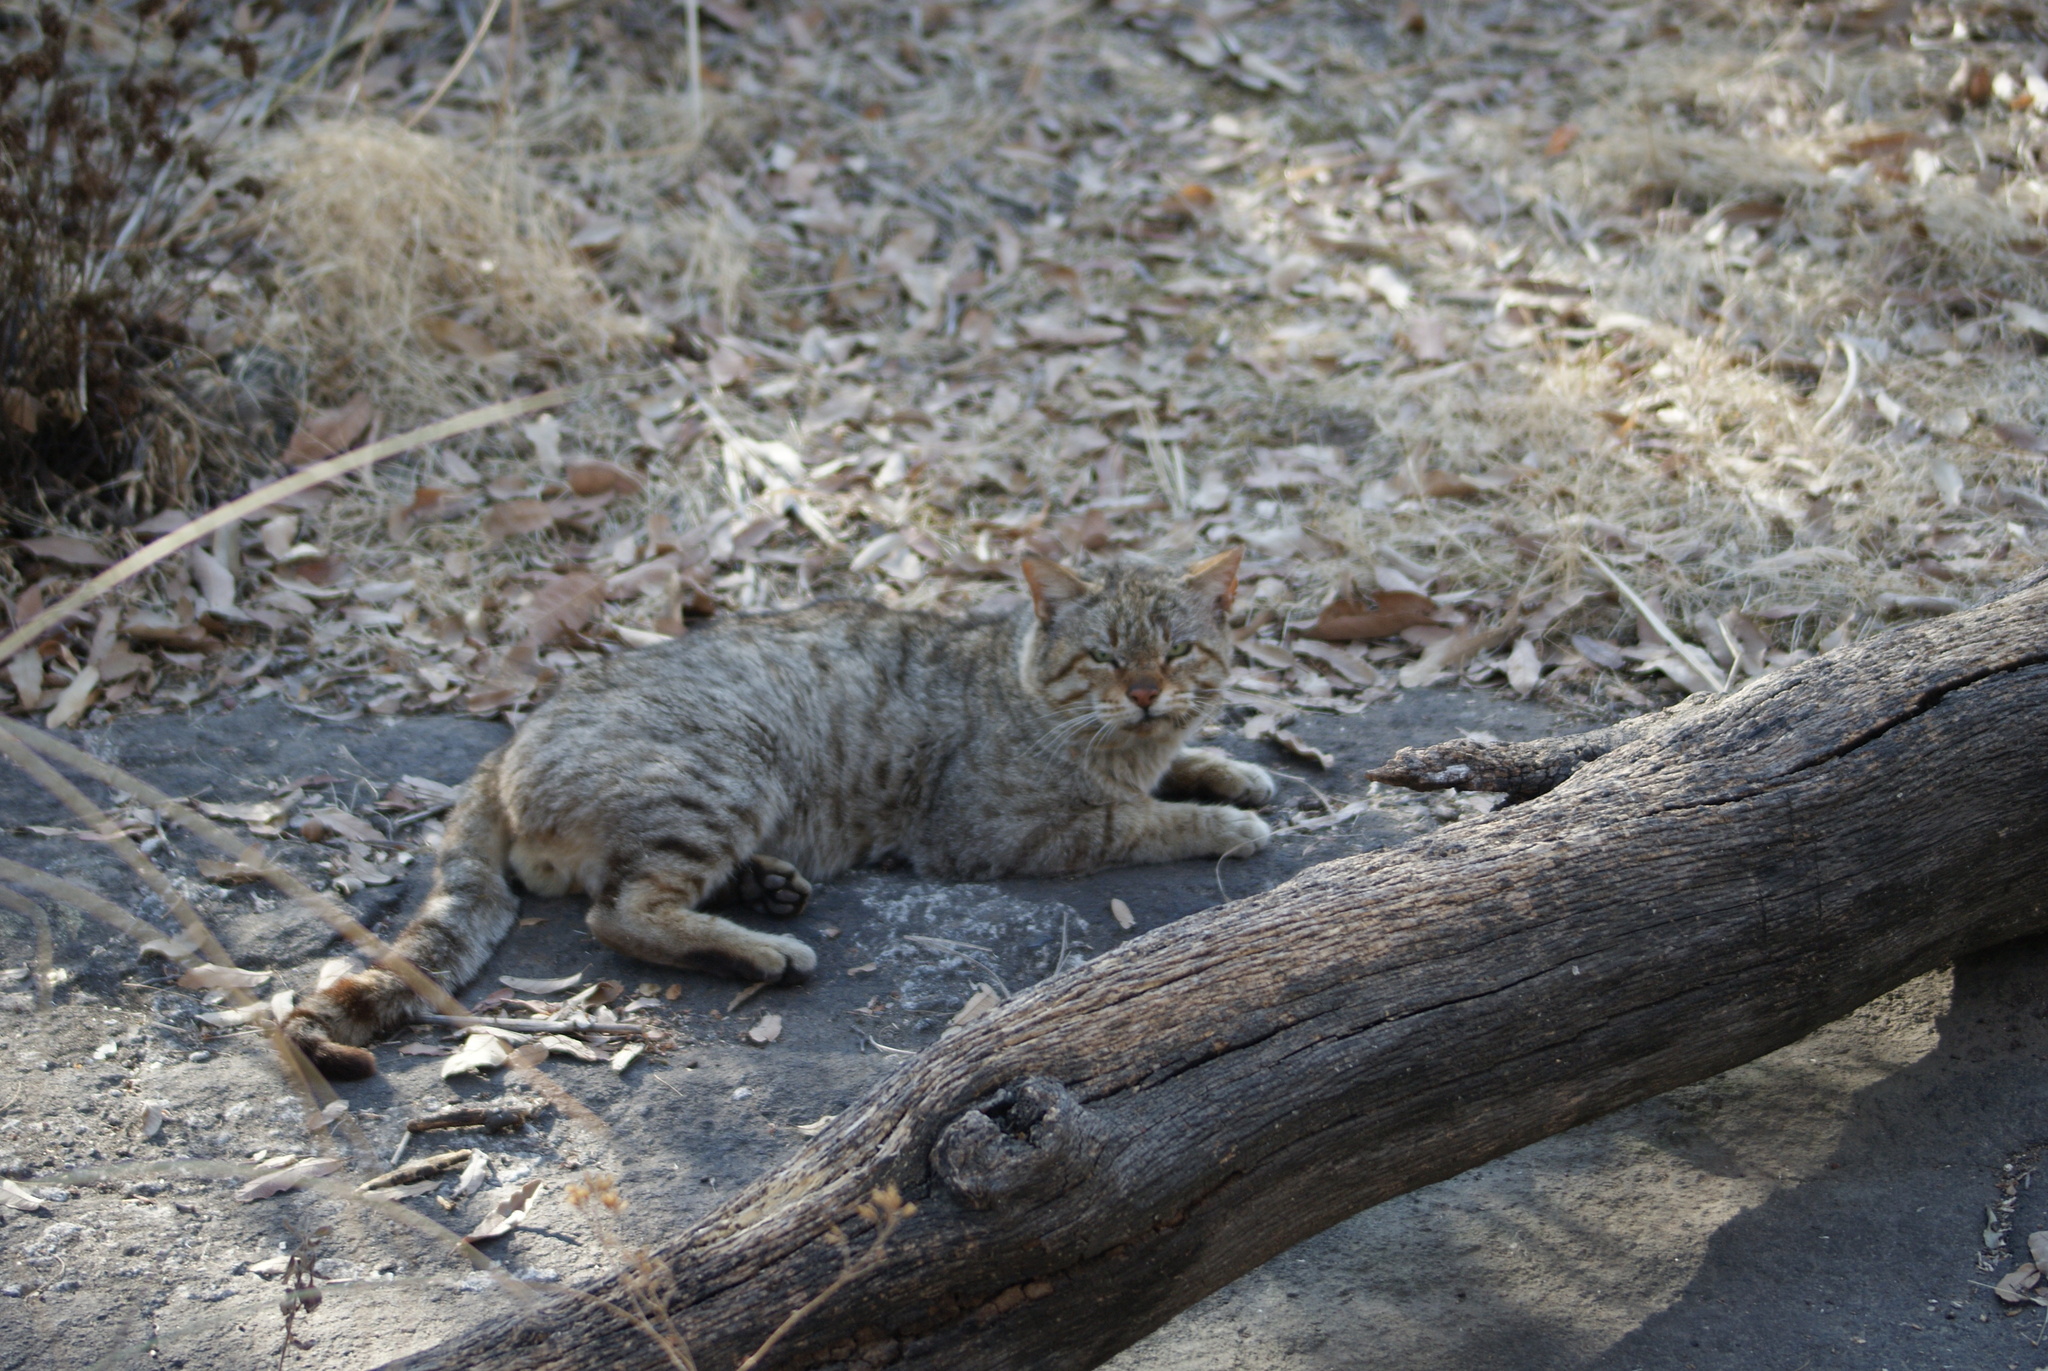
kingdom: Animalia
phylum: Chordata
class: Mammalia
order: Carnivora
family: Felidae
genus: Felis
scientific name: Felis catus
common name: Domestic cat
